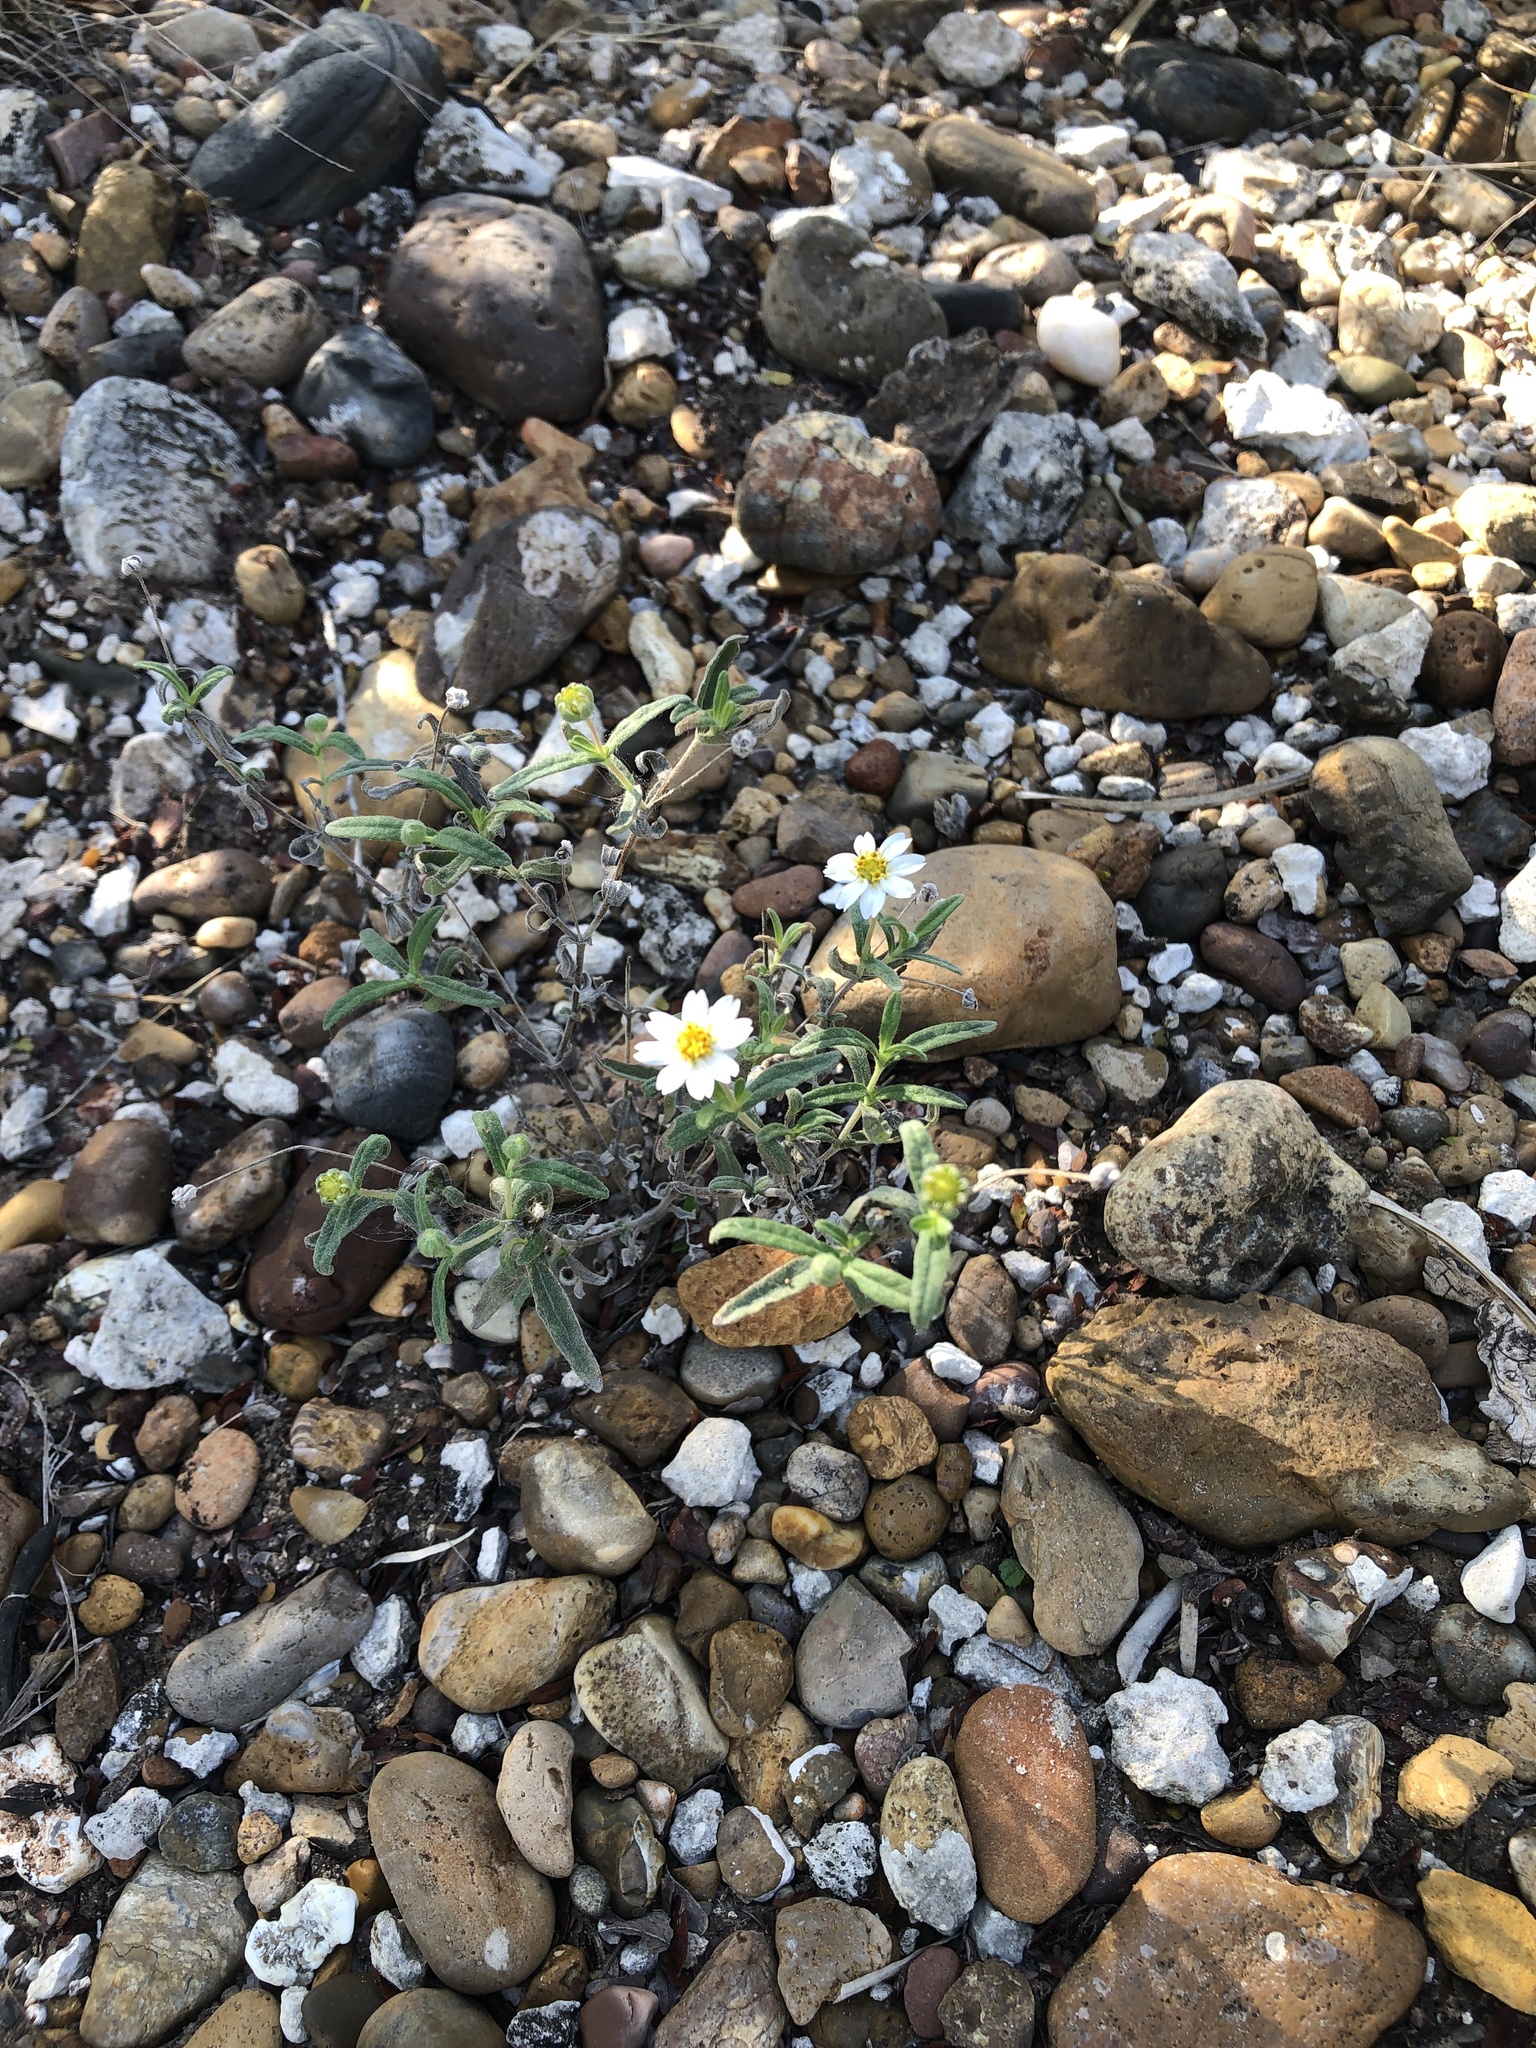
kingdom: Plantae
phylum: Tracheophyta
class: Magnoliopsida
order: Asterales
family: Asteraceae
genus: Melampodium
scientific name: Melampodium cinereum
